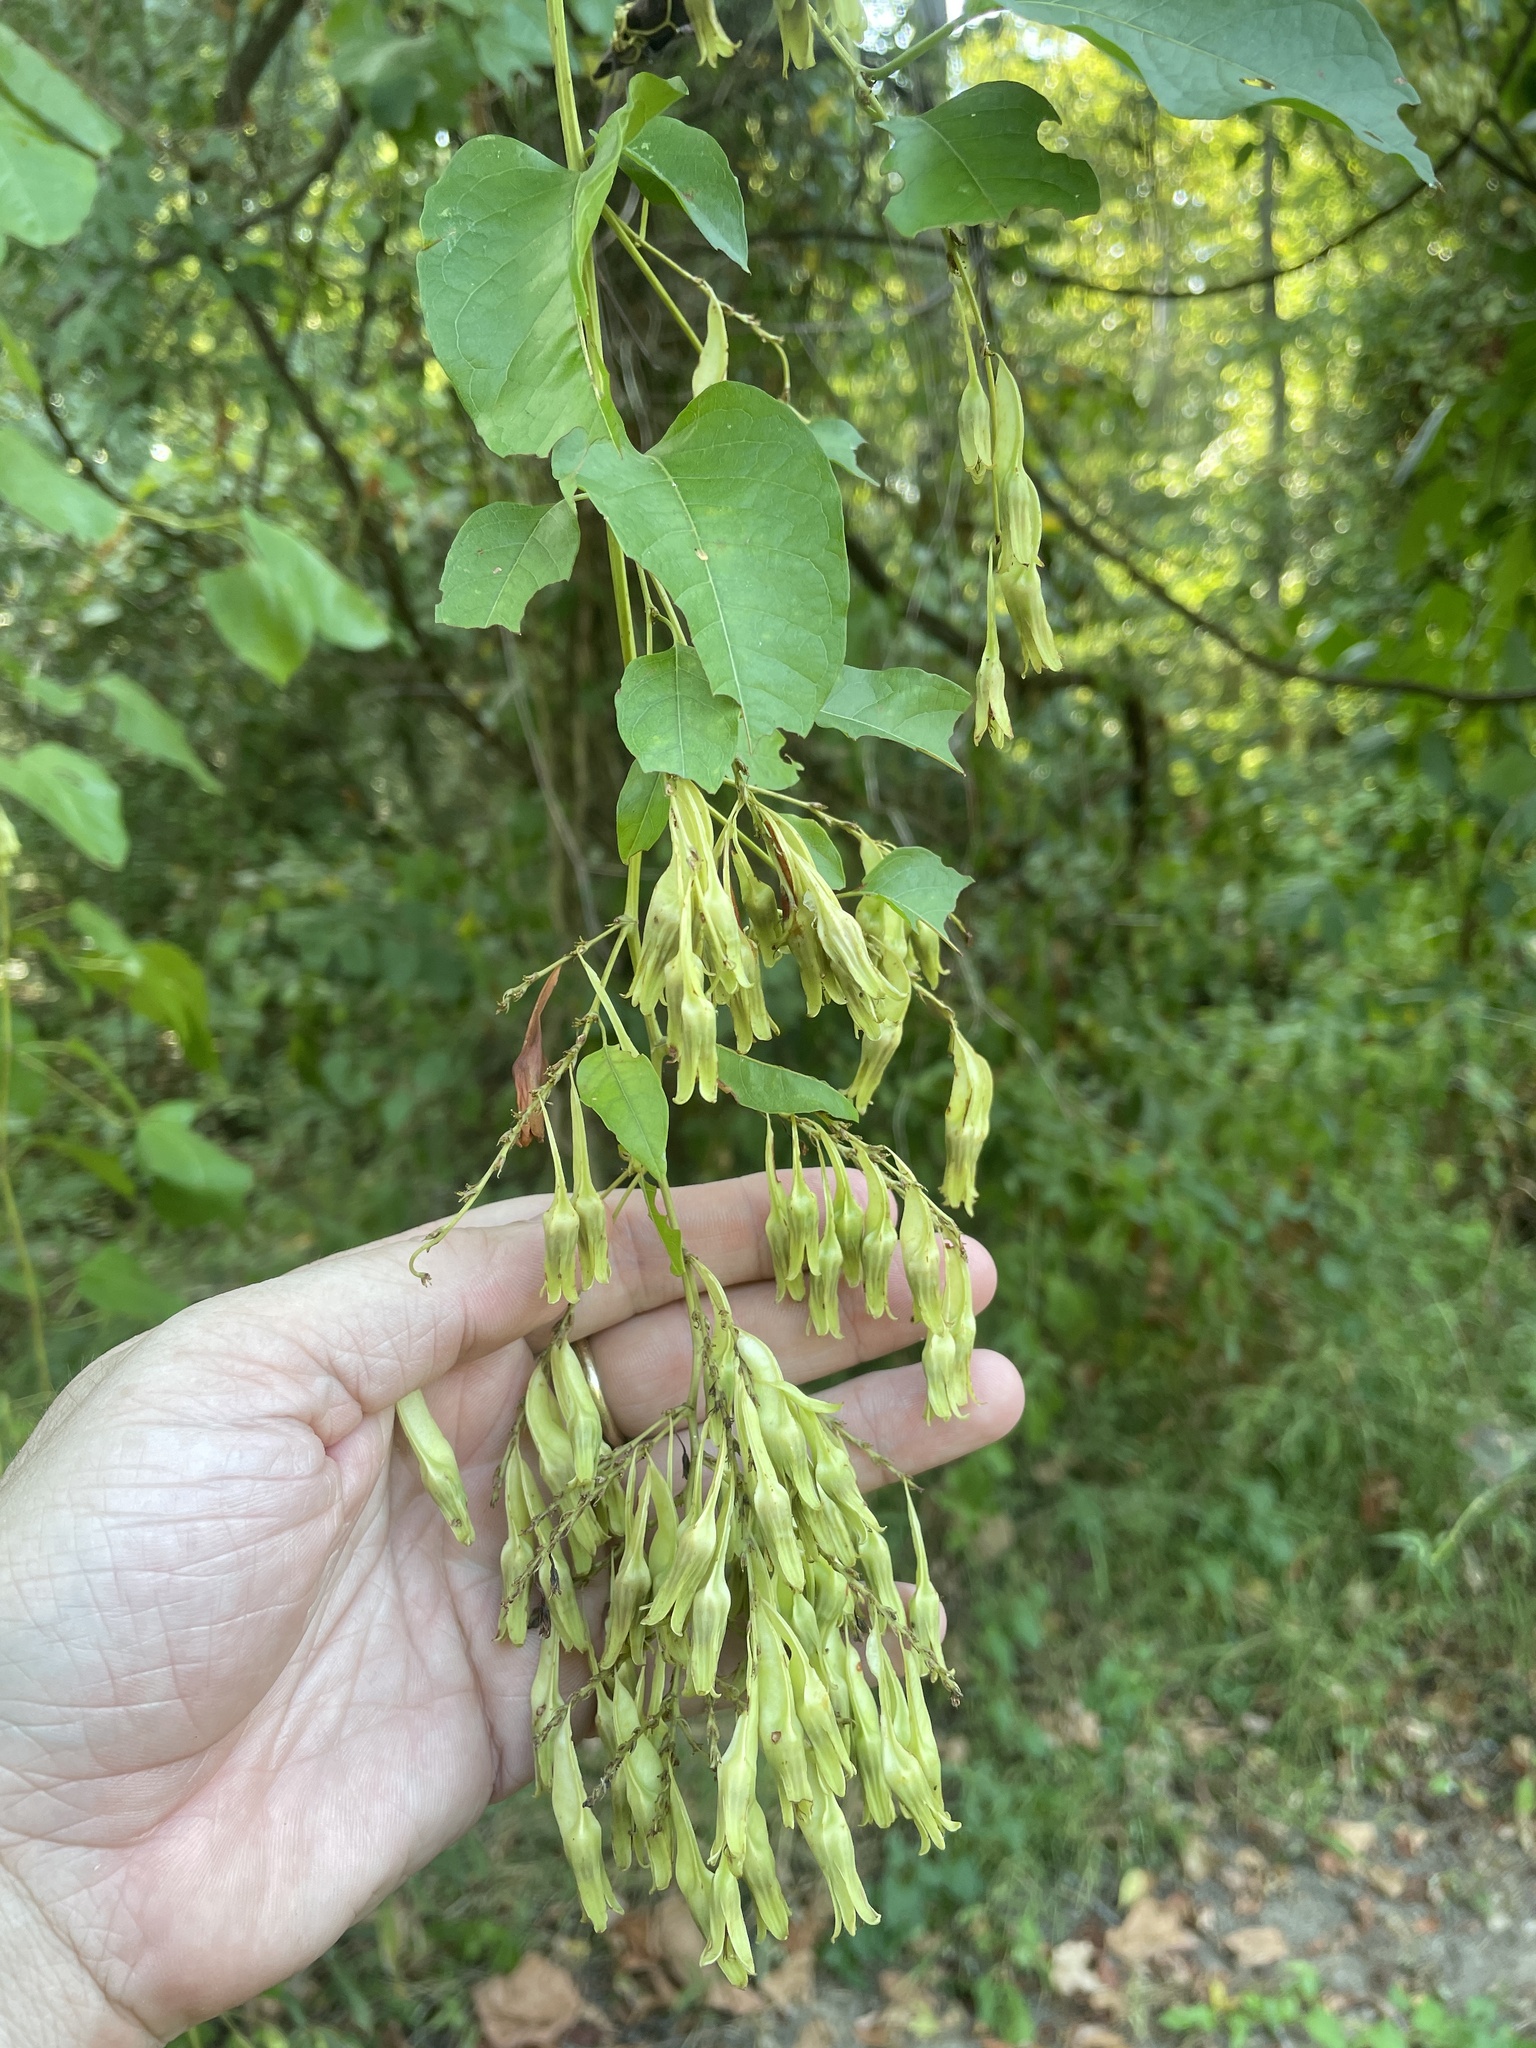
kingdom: Plantae
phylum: Tracheophyta
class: Magnoliopsida
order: Caryophyllales
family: Polygonaceae
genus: Brunnichia
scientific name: Brunnichia ovata
